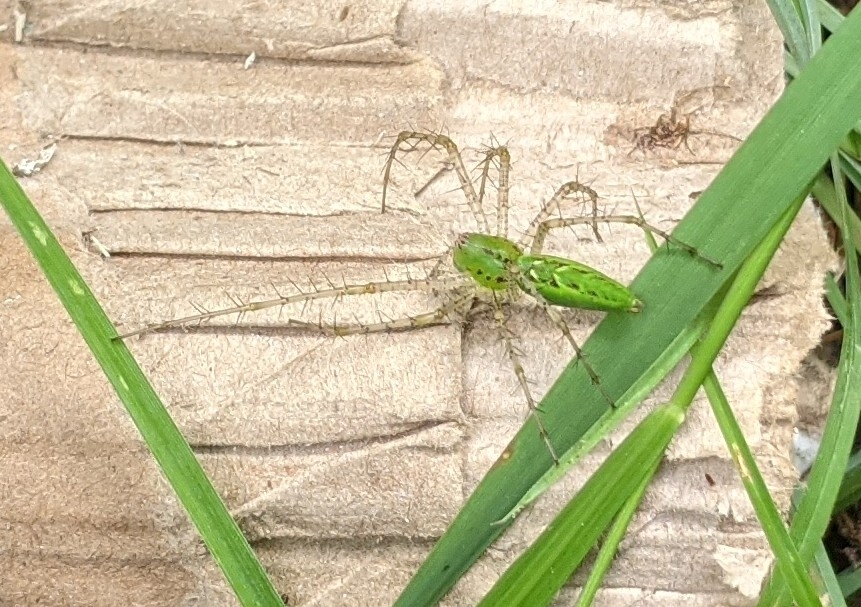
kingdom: Animalia
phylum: Arthropoda
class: Arachnida
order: Araneae
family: Oxyopidae
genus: Peucetia
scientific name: Peucetia viridans
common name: Lynx spiders
